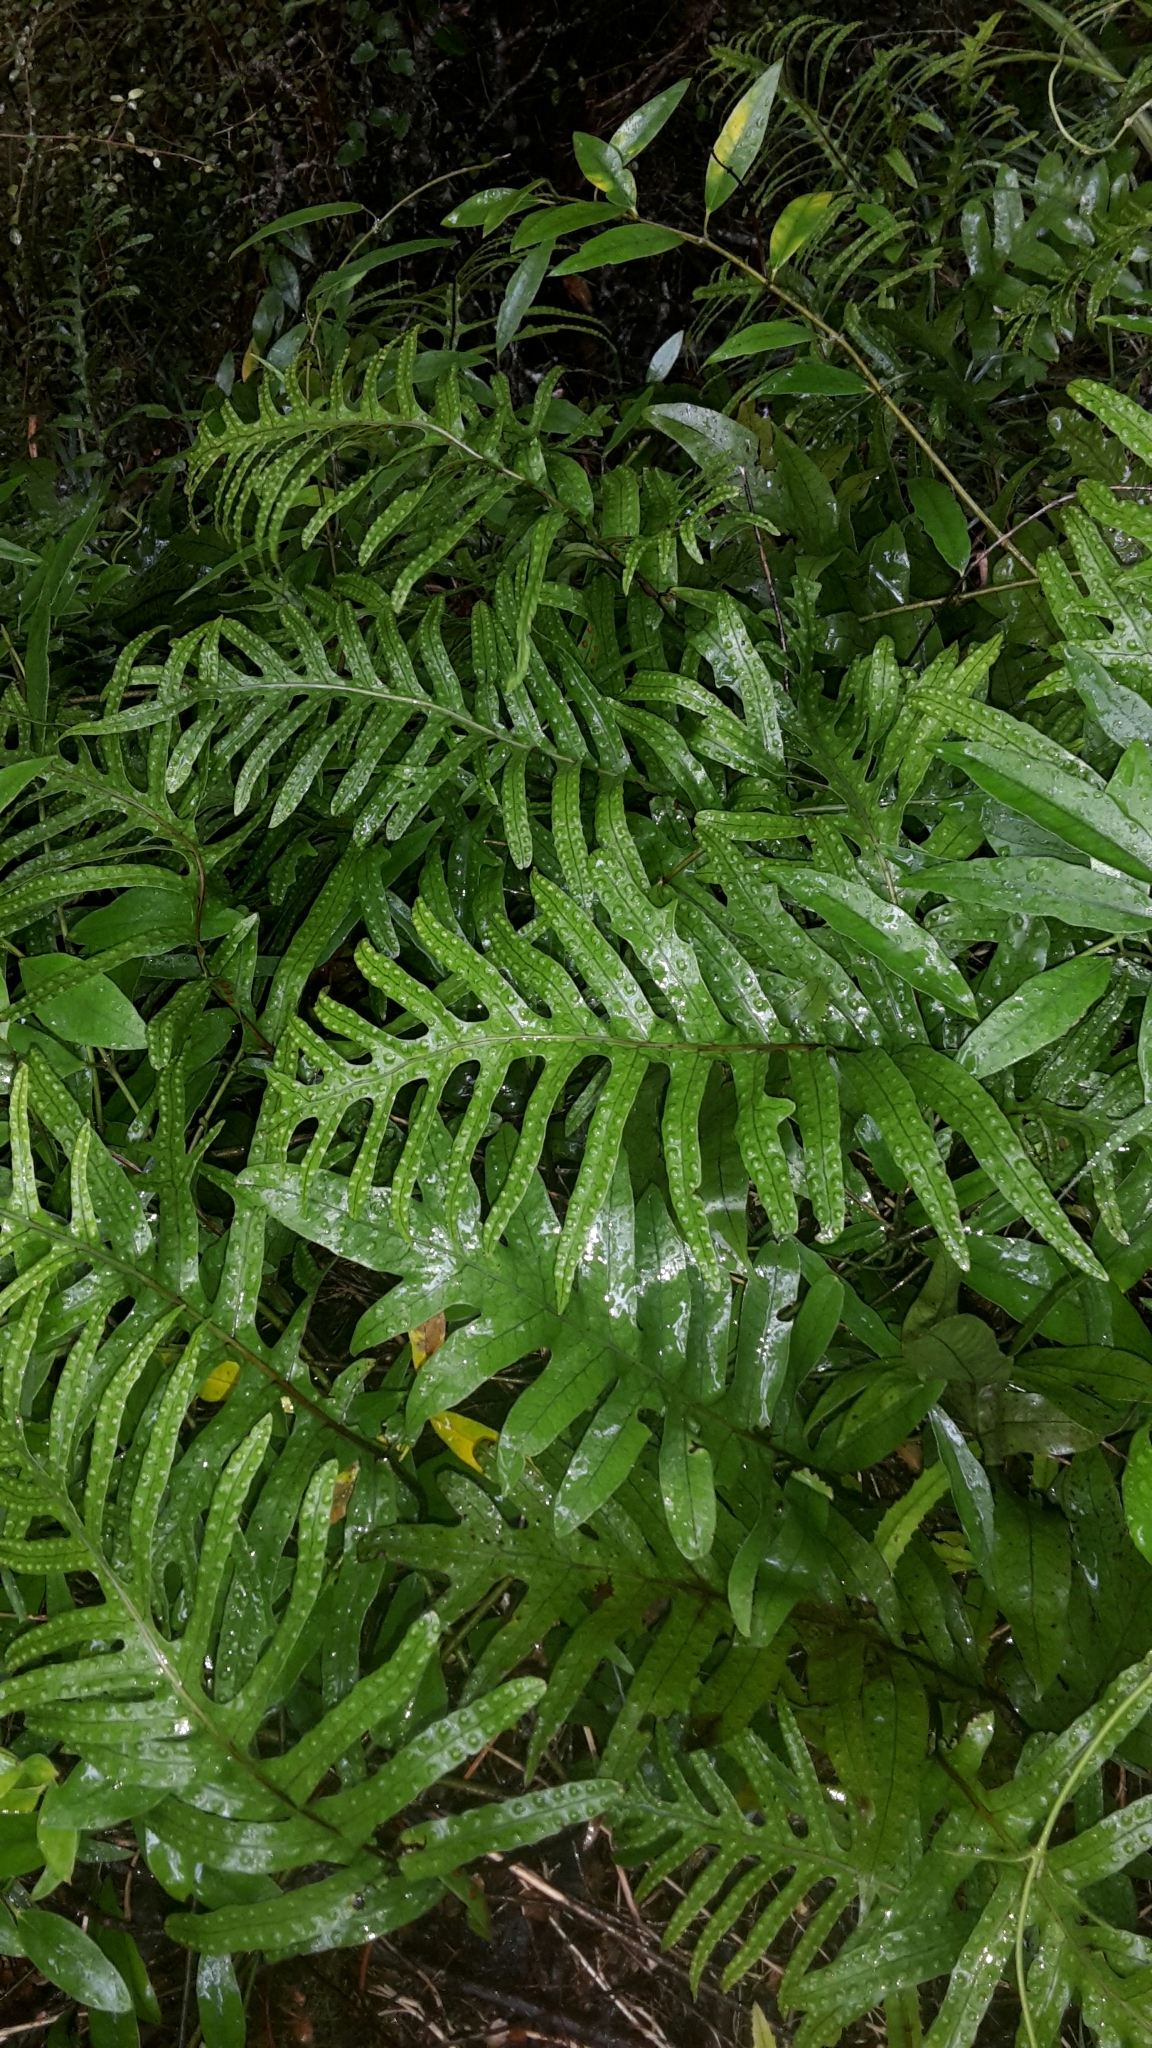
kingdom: Plantae
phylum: Tracheophyta
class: Polypodiopsida
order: Polypodiales
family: Polypodiaceae
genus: Lecanopteris
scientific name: Lecanopteris pustulata
